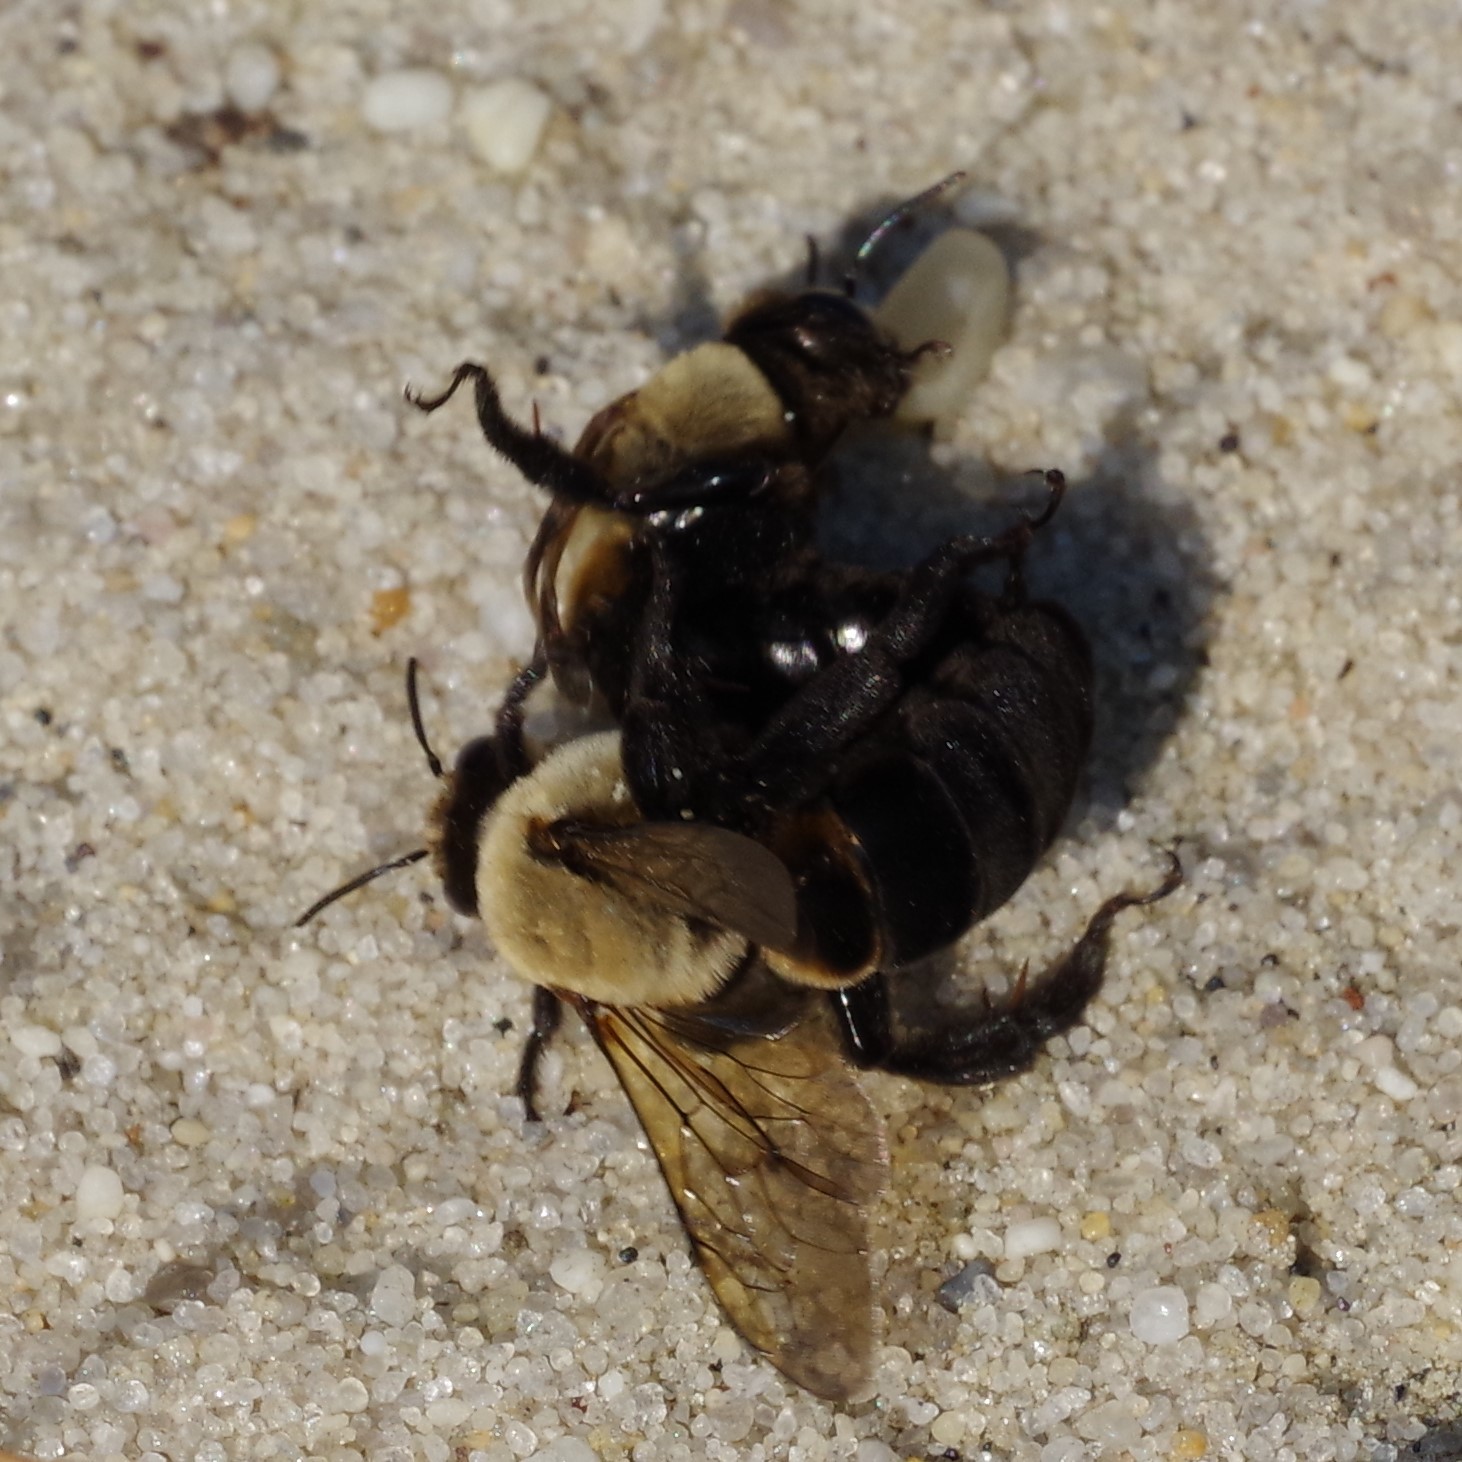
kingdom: Animalia
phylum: Arthropoda
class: Insecta
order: Hymenoptera
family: Apidae
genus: Ptilothrix
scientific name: Ptilothrix bombiformis
